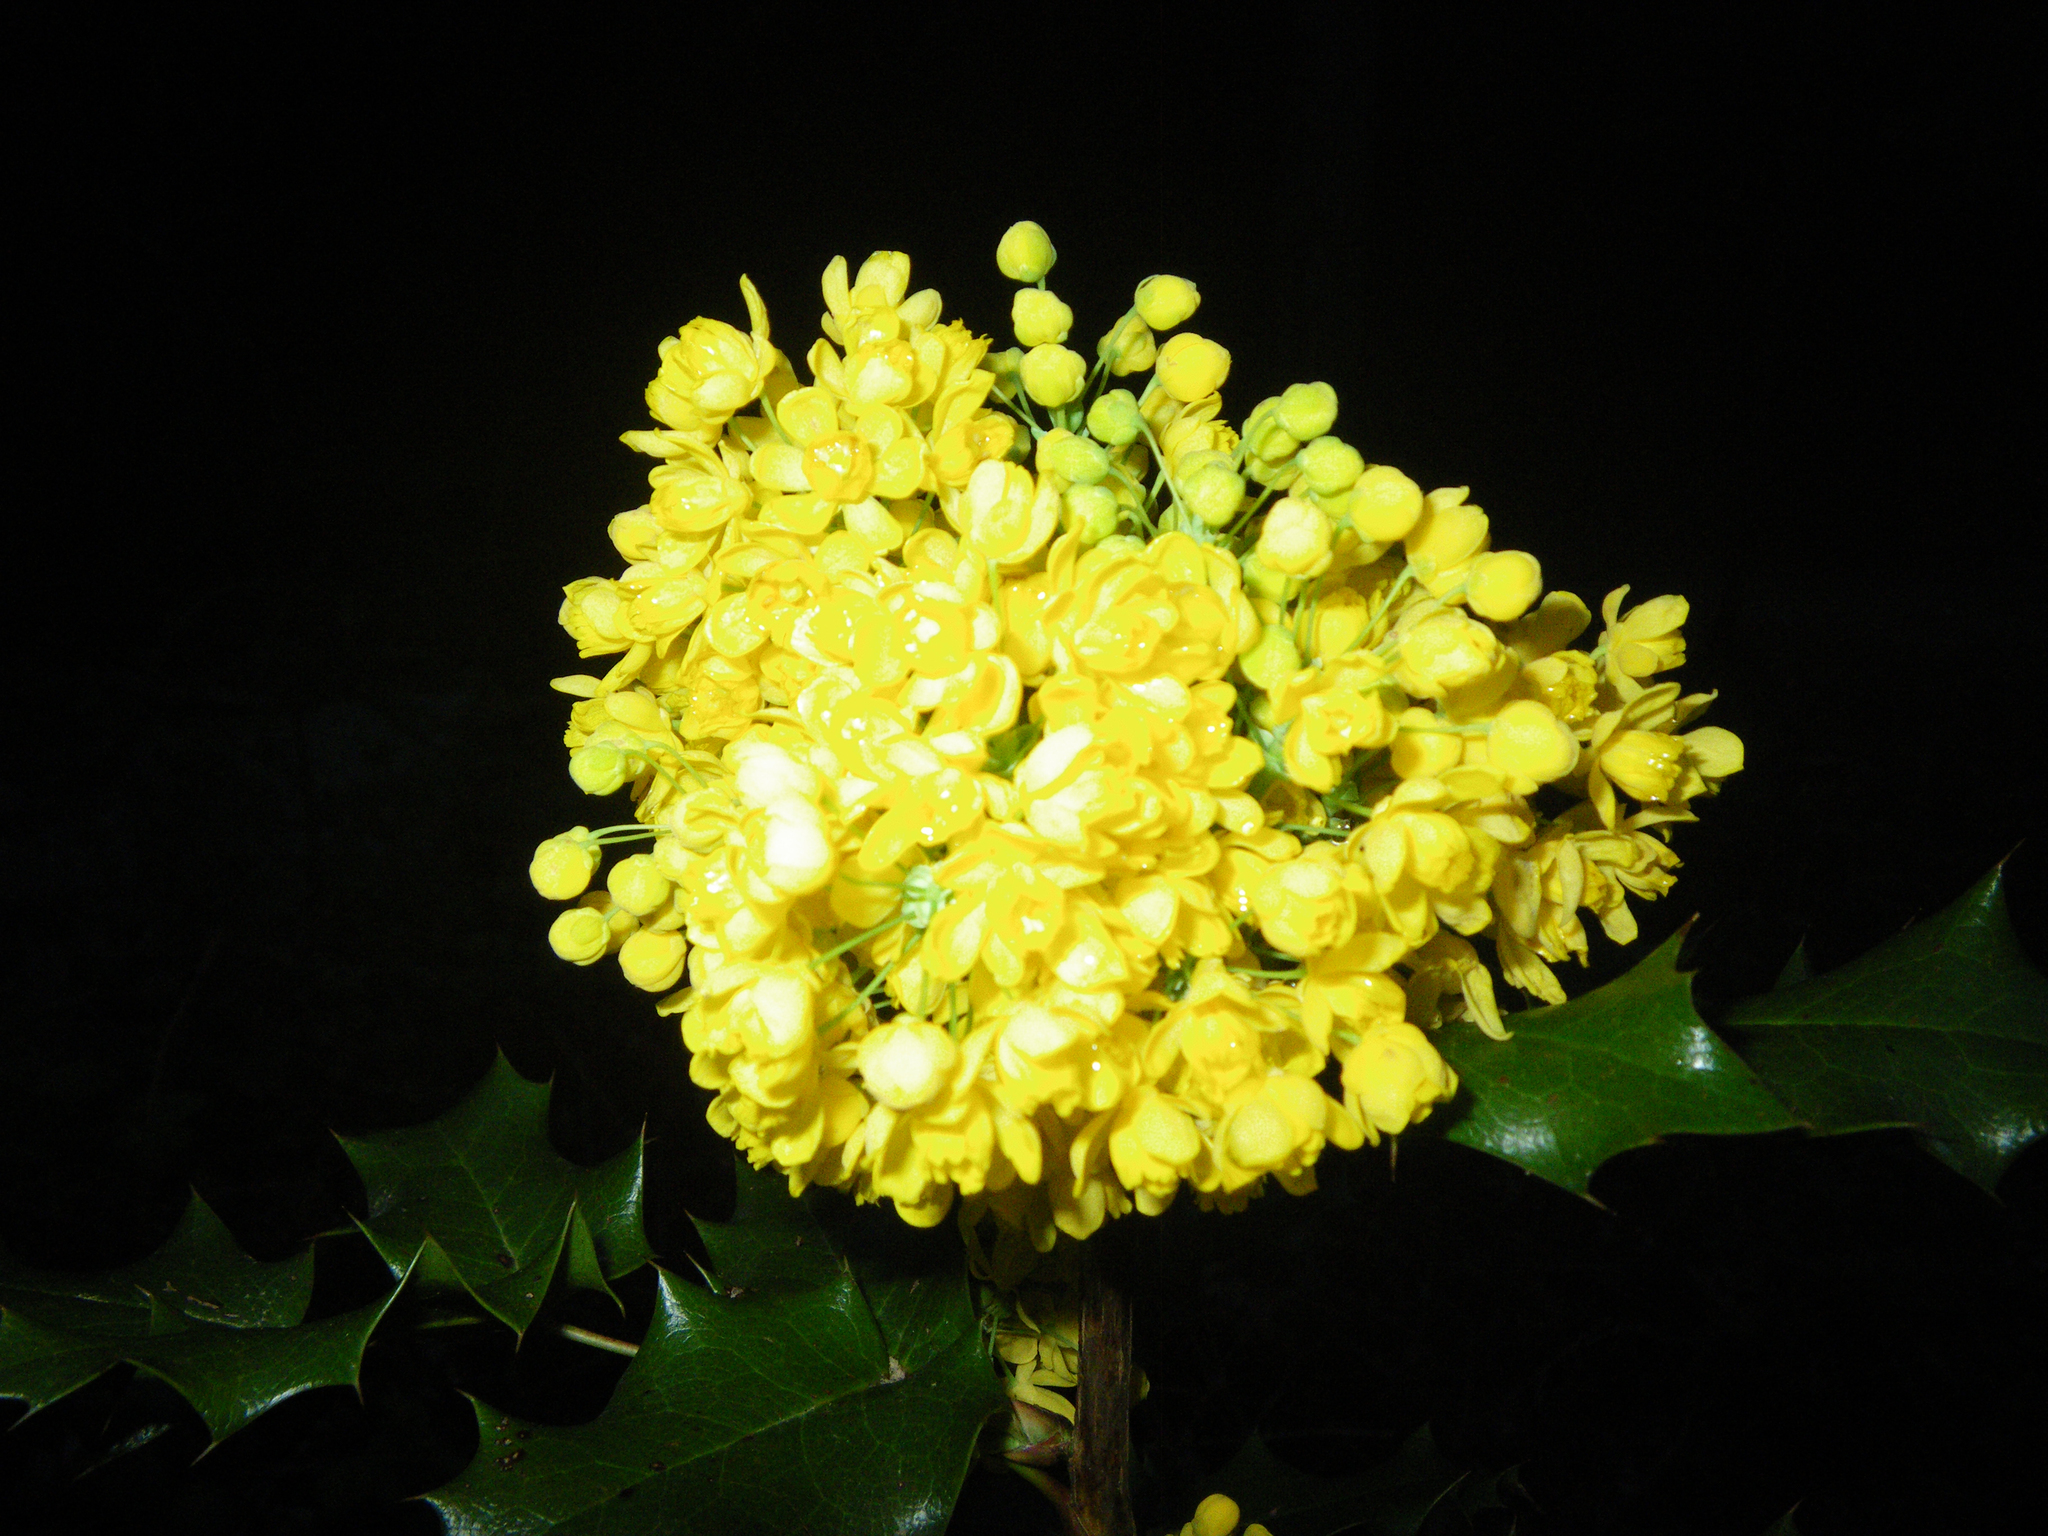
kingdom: Plantae
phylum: Tracheophyta
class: Magnoliopsida
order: Ranunculales
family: Berberidaceae
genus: Mahonia
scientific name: Mahonia aquifolium
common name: Oregon-grape
